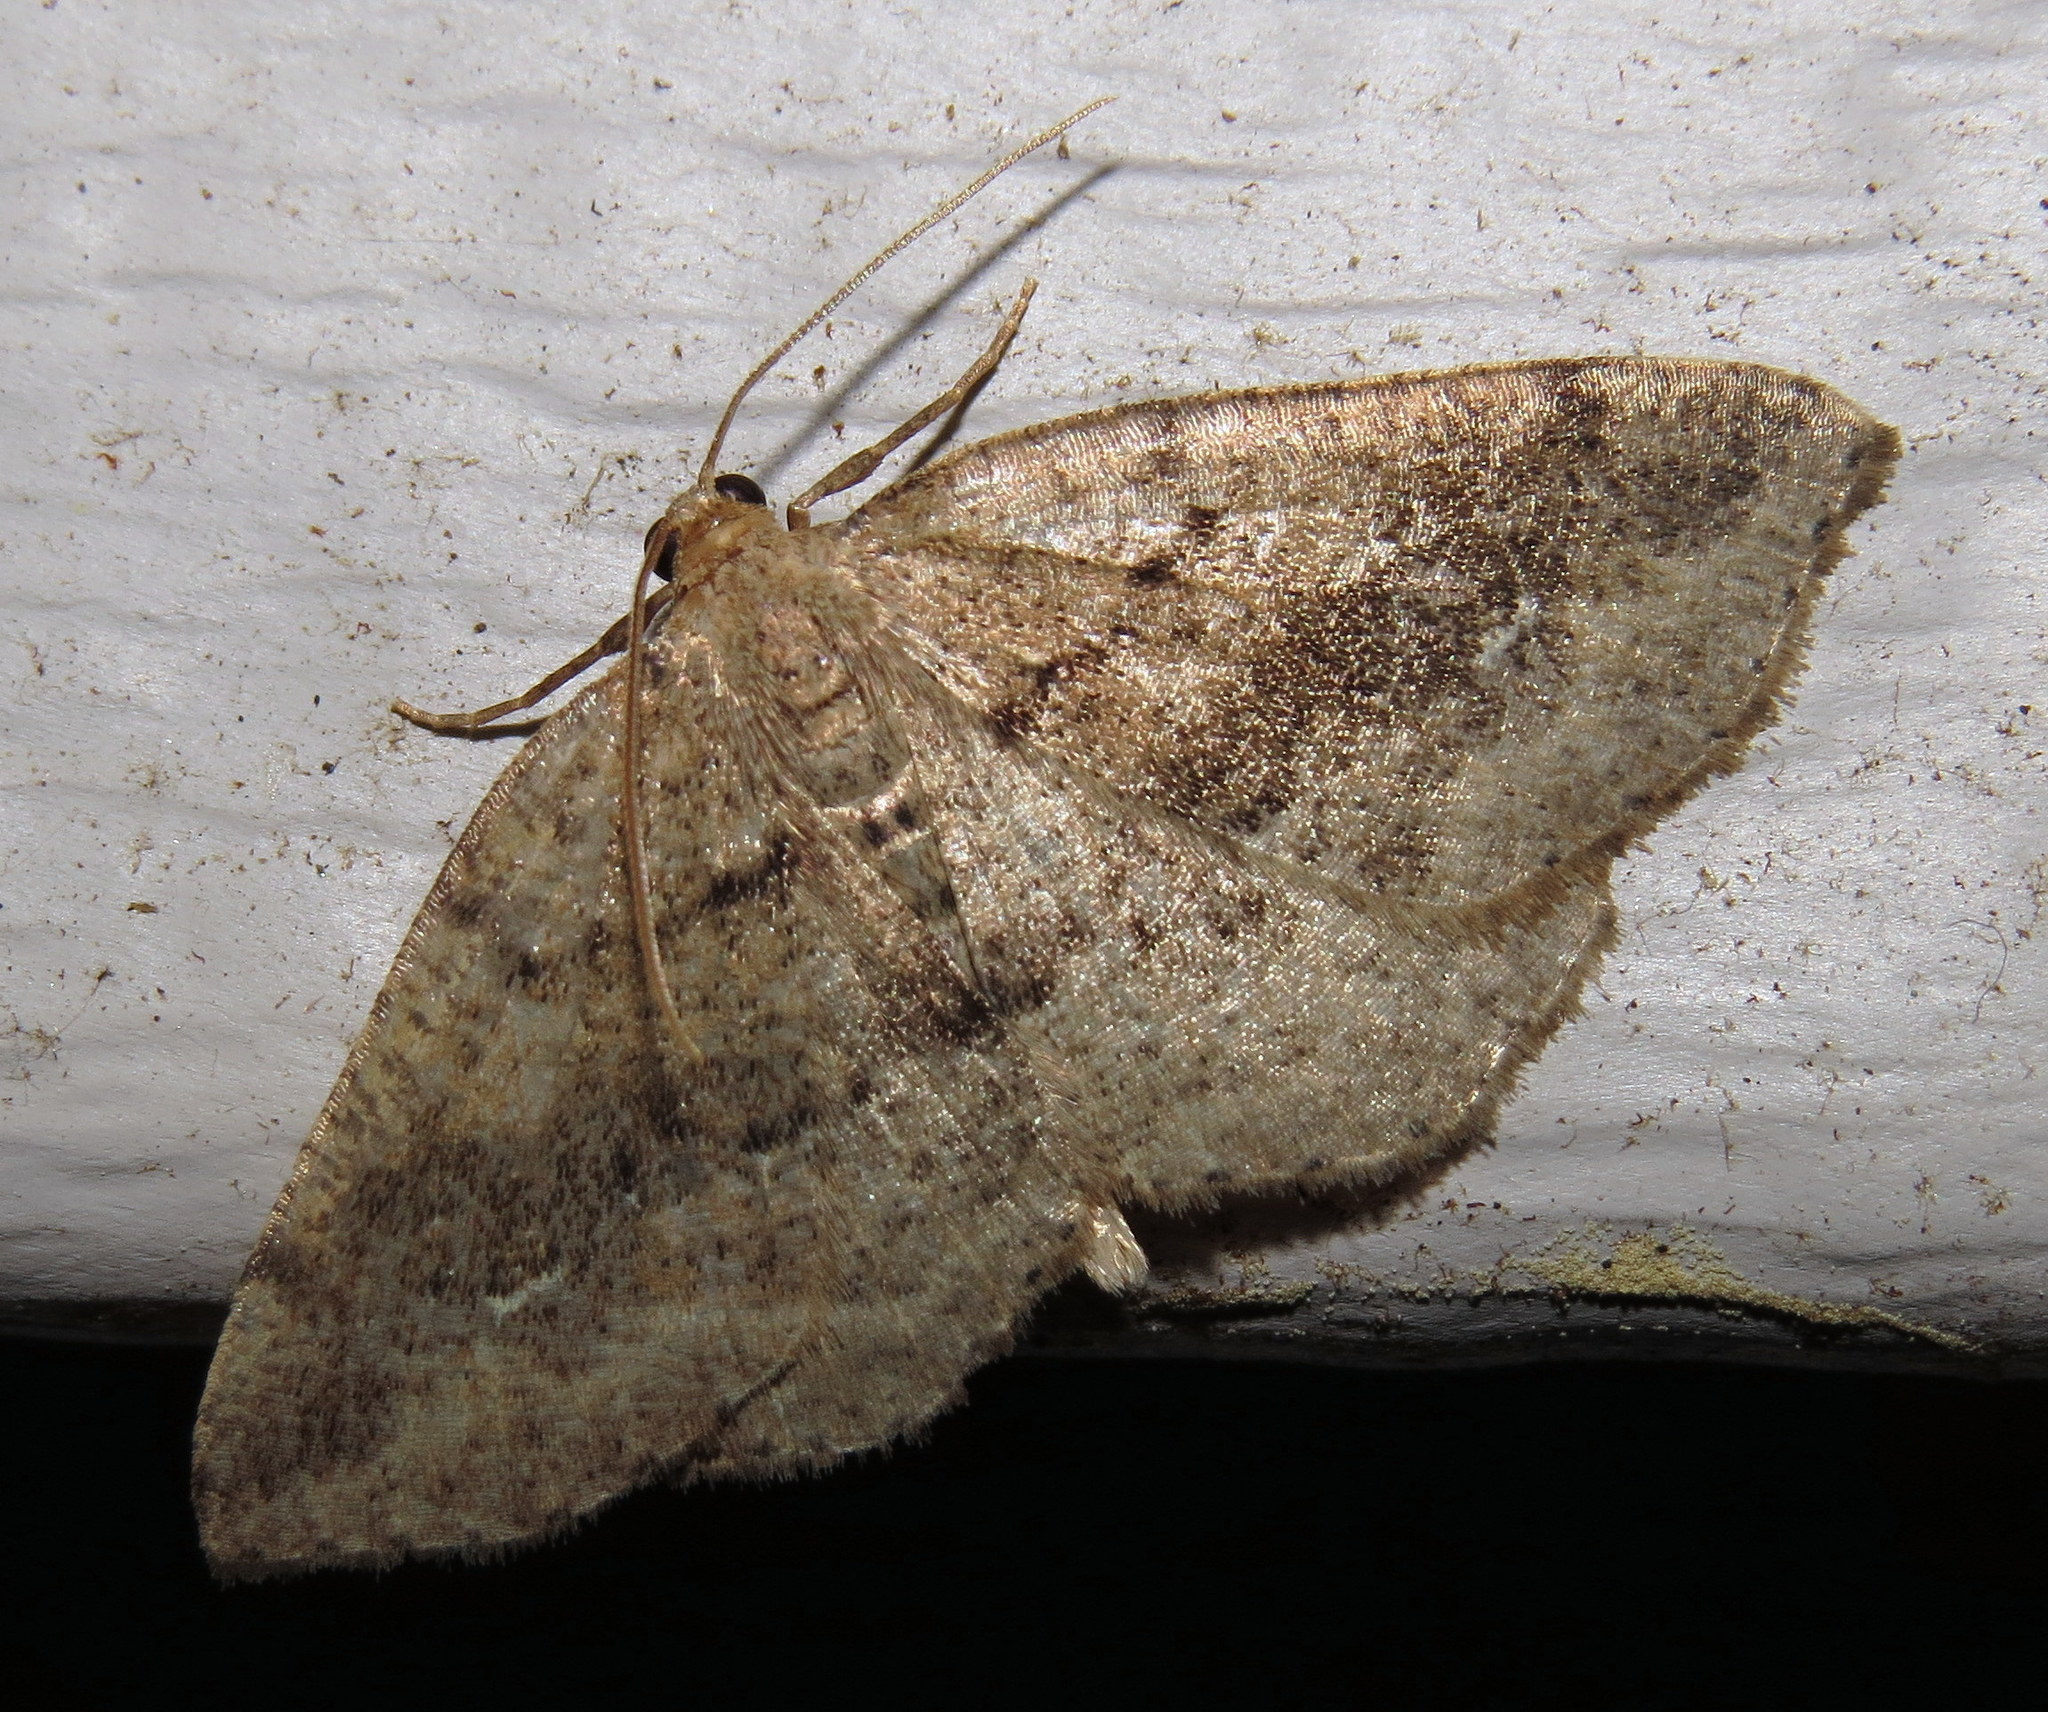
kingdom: Animalia
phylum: Arthropoda
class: Insecta
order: Lepidoptera
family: Geometridae
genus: Homochlodes
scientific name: Homochlodes fritillaria
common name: Pale homochlodes
